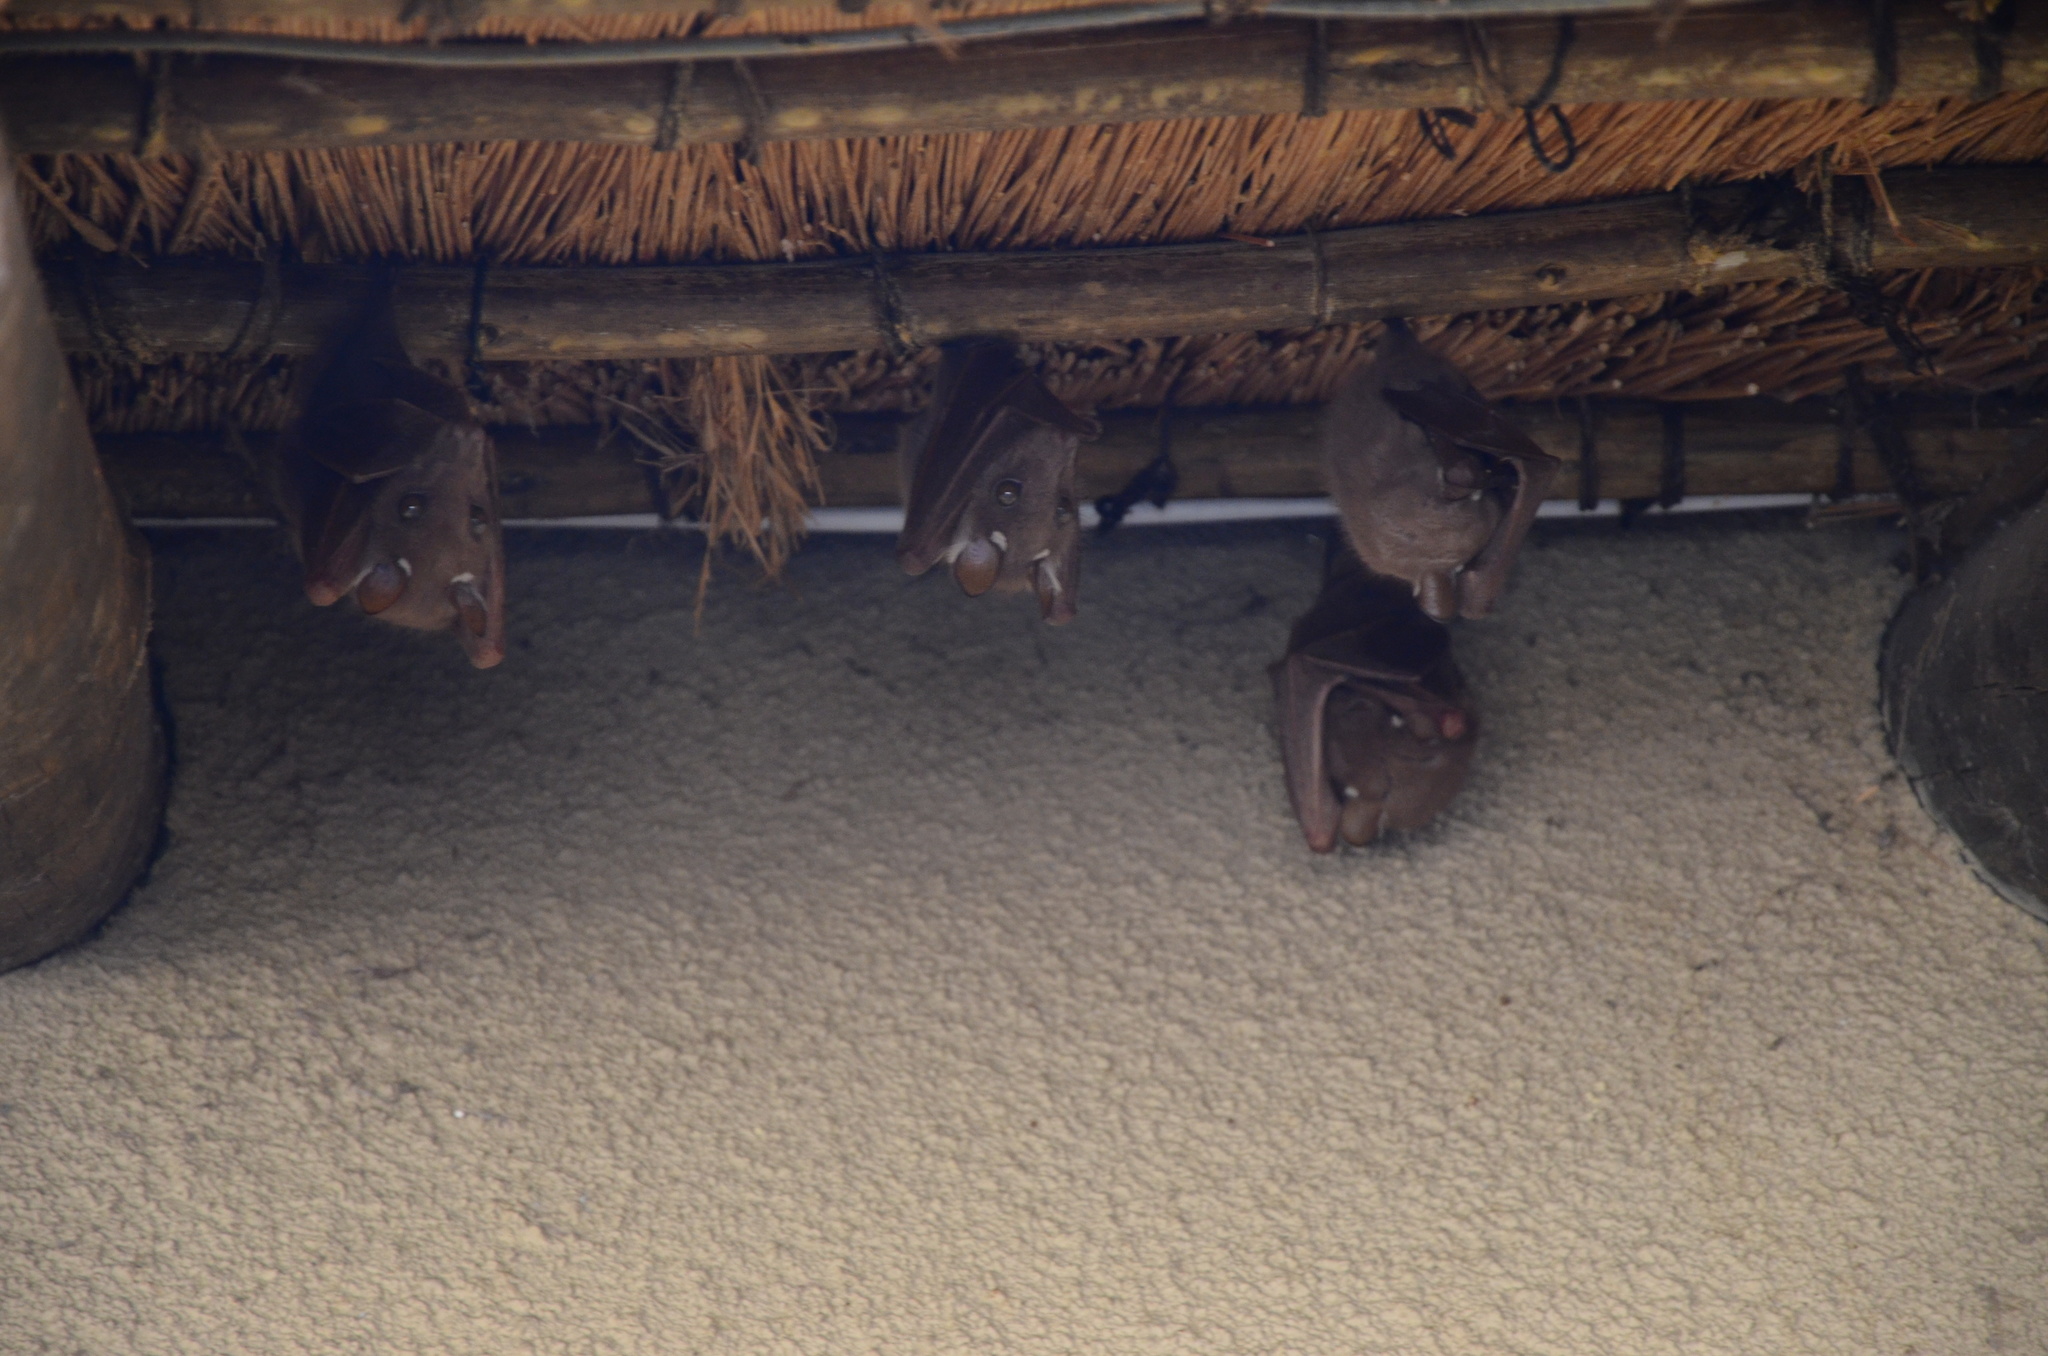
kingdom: Animalia
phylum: Chordata
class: Mammalia
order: Chiroptera
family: Pteropodidae
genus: Epomophorus
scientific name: Epomophorus
